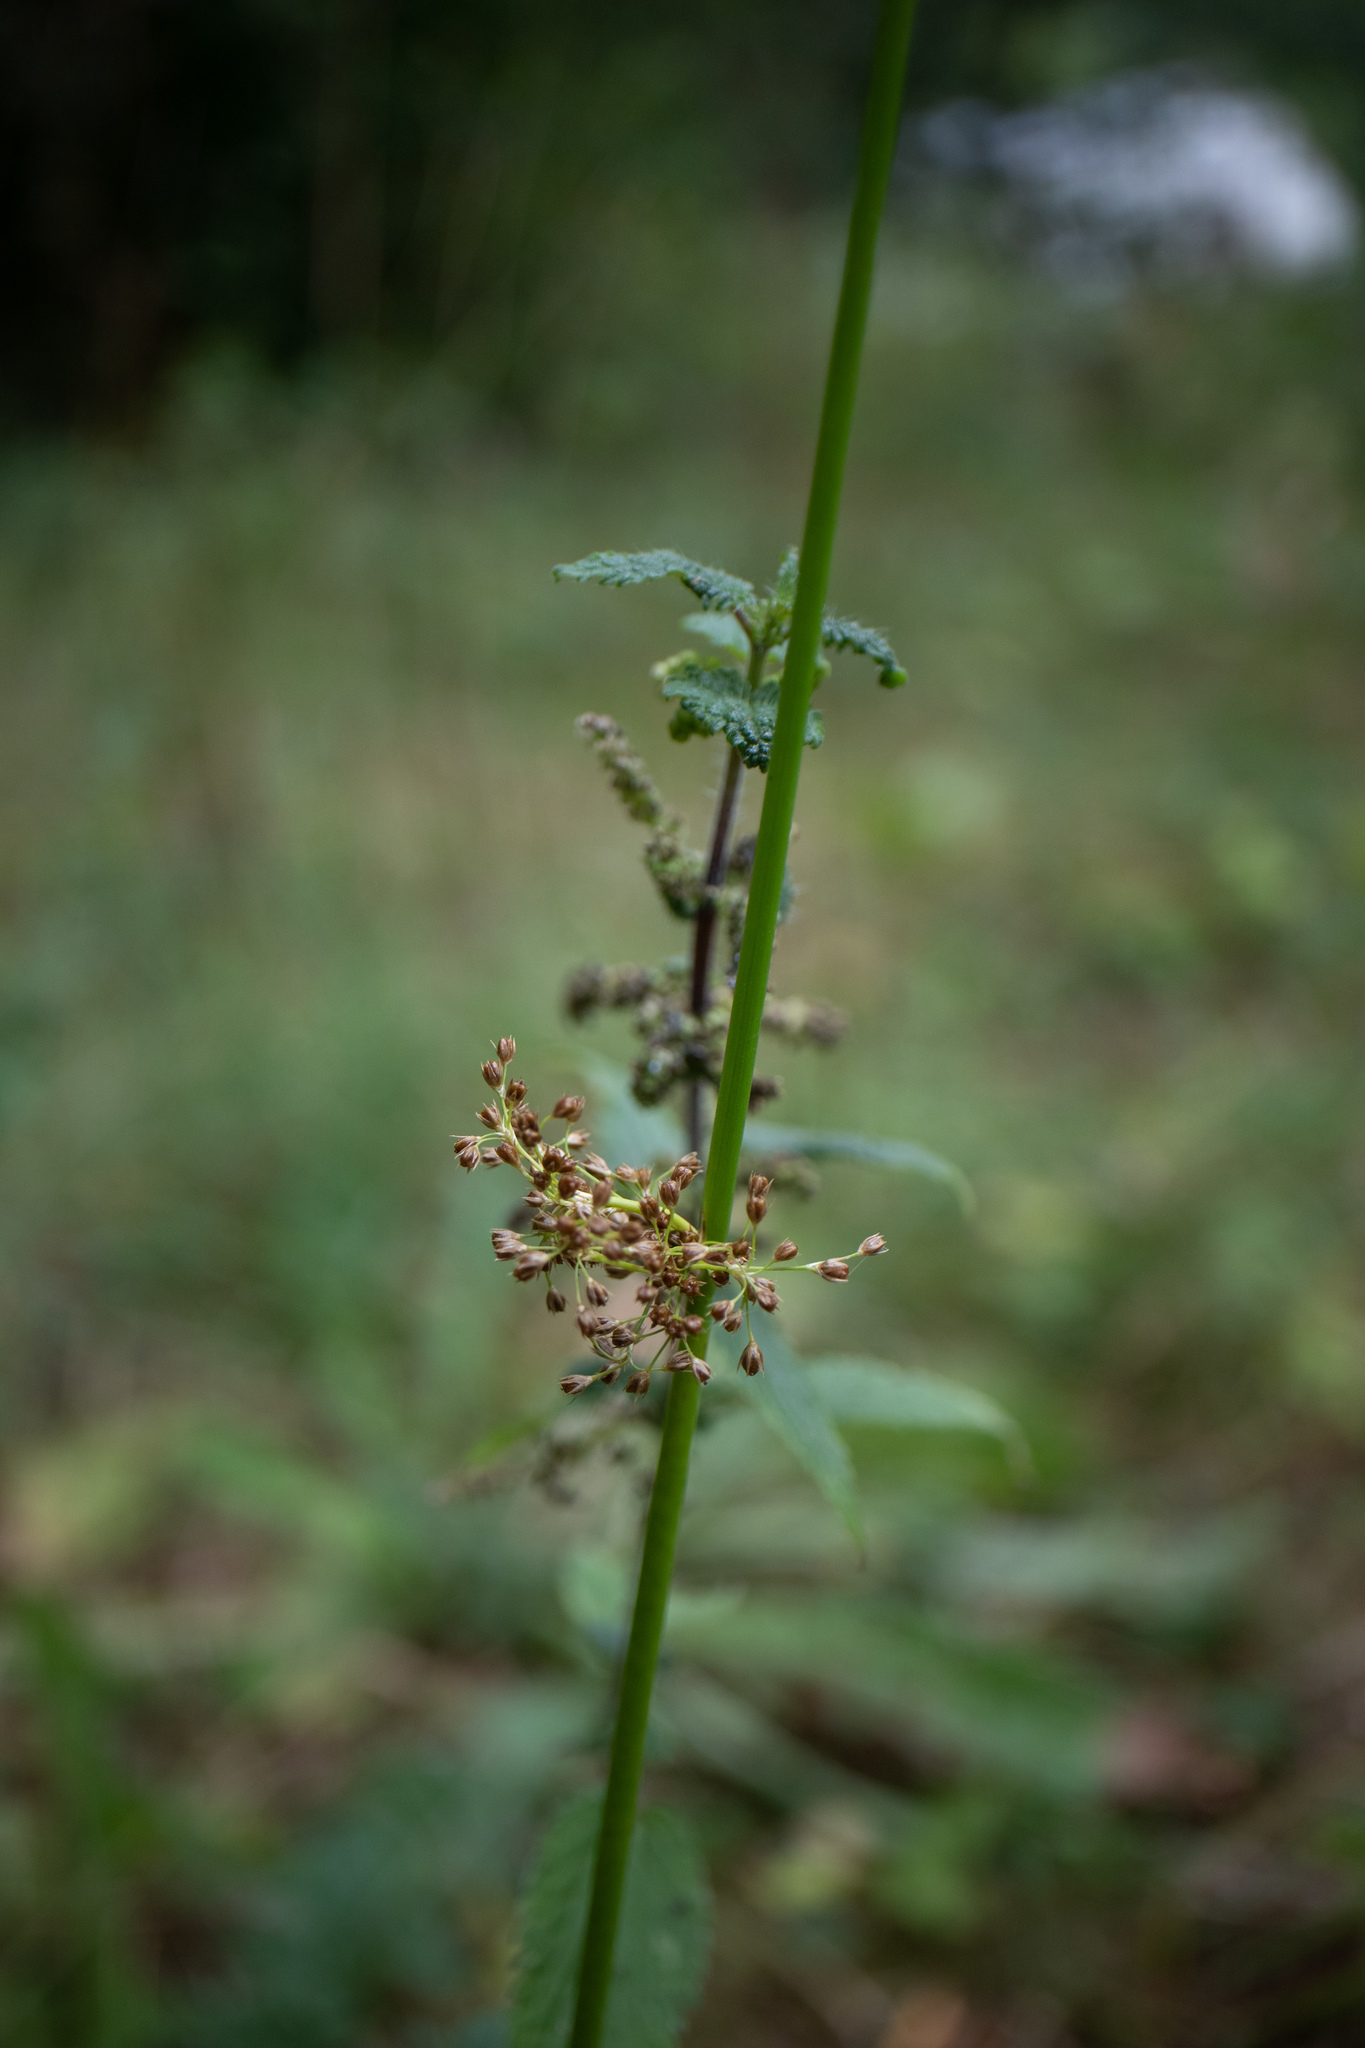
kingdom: Plantae
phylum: Tracheophyta
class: Liliopsida
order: Poales
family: Juncaceae
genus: Juncus
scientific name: Juncus effusus
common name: Soft rush
